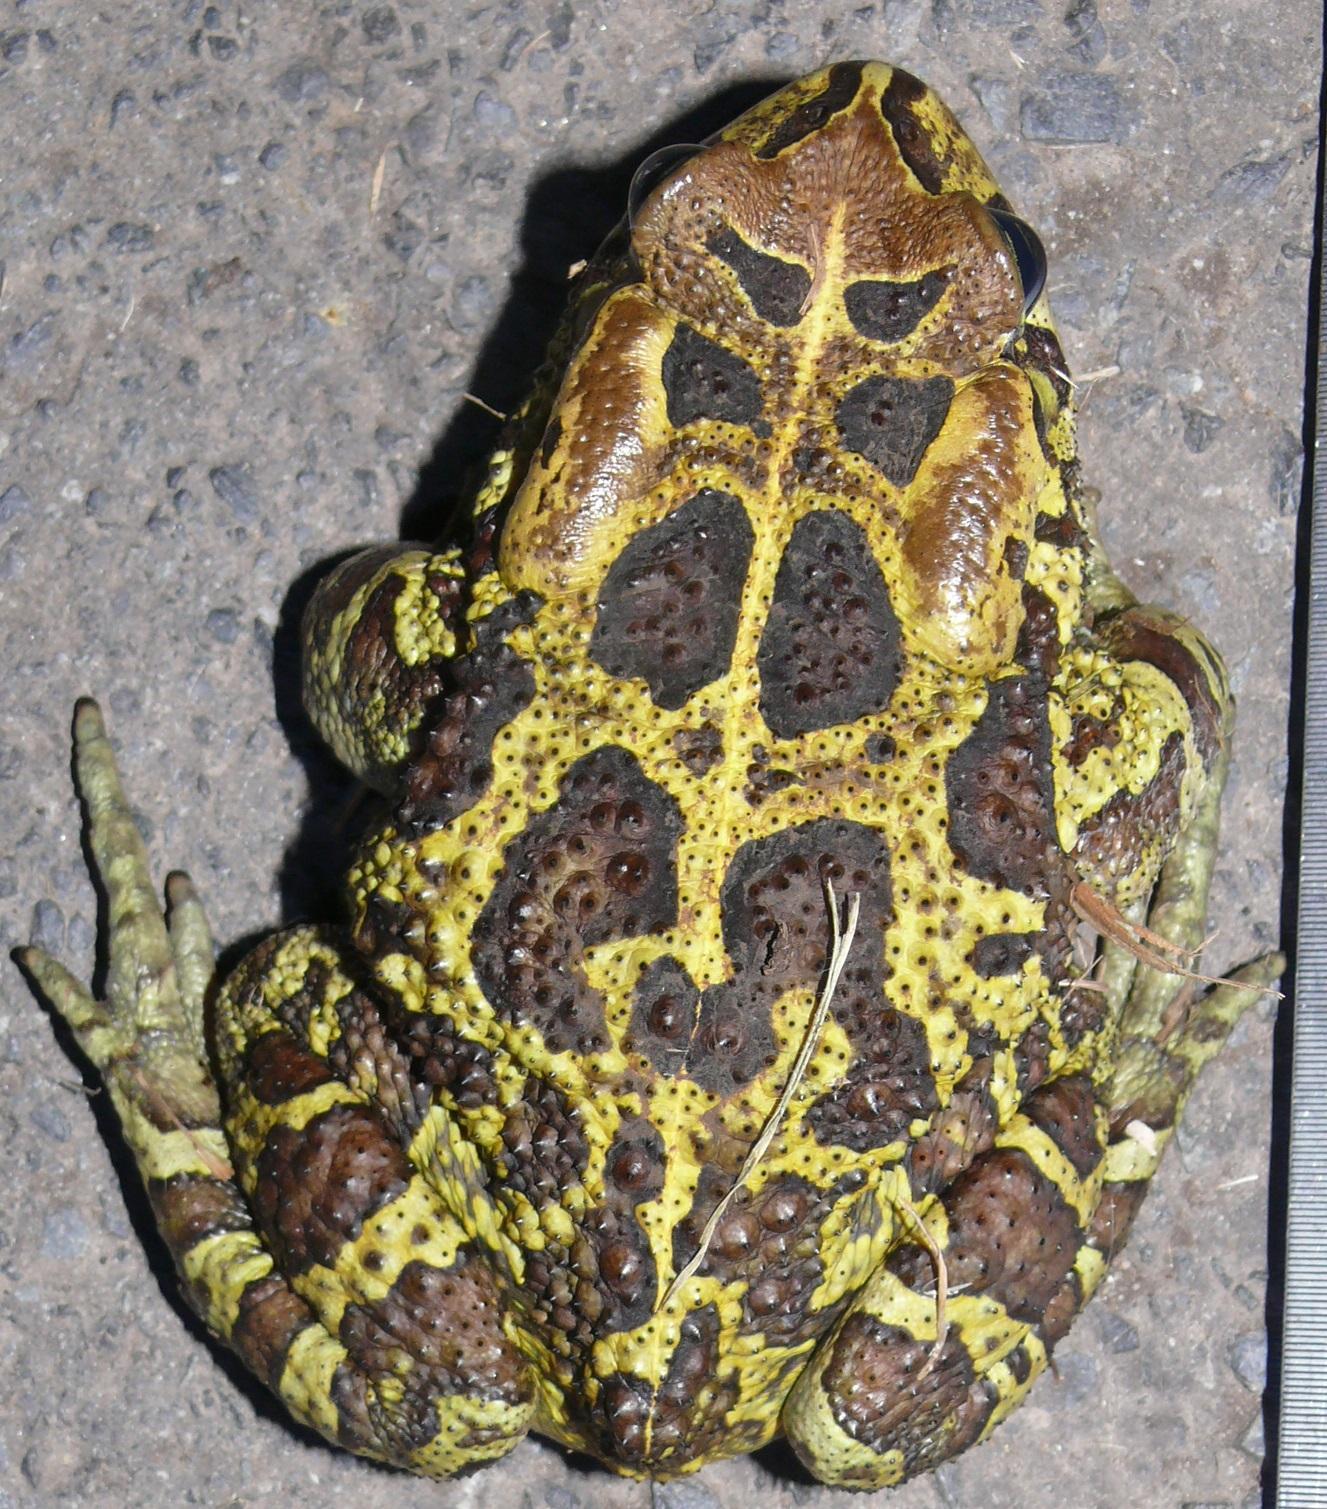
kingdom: Animalia
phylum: Chordata
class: Amphibia
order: Anura
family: Bufonidae
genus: Sclerophrys
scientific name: Sclerophrys pantherina
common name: Panther toad
